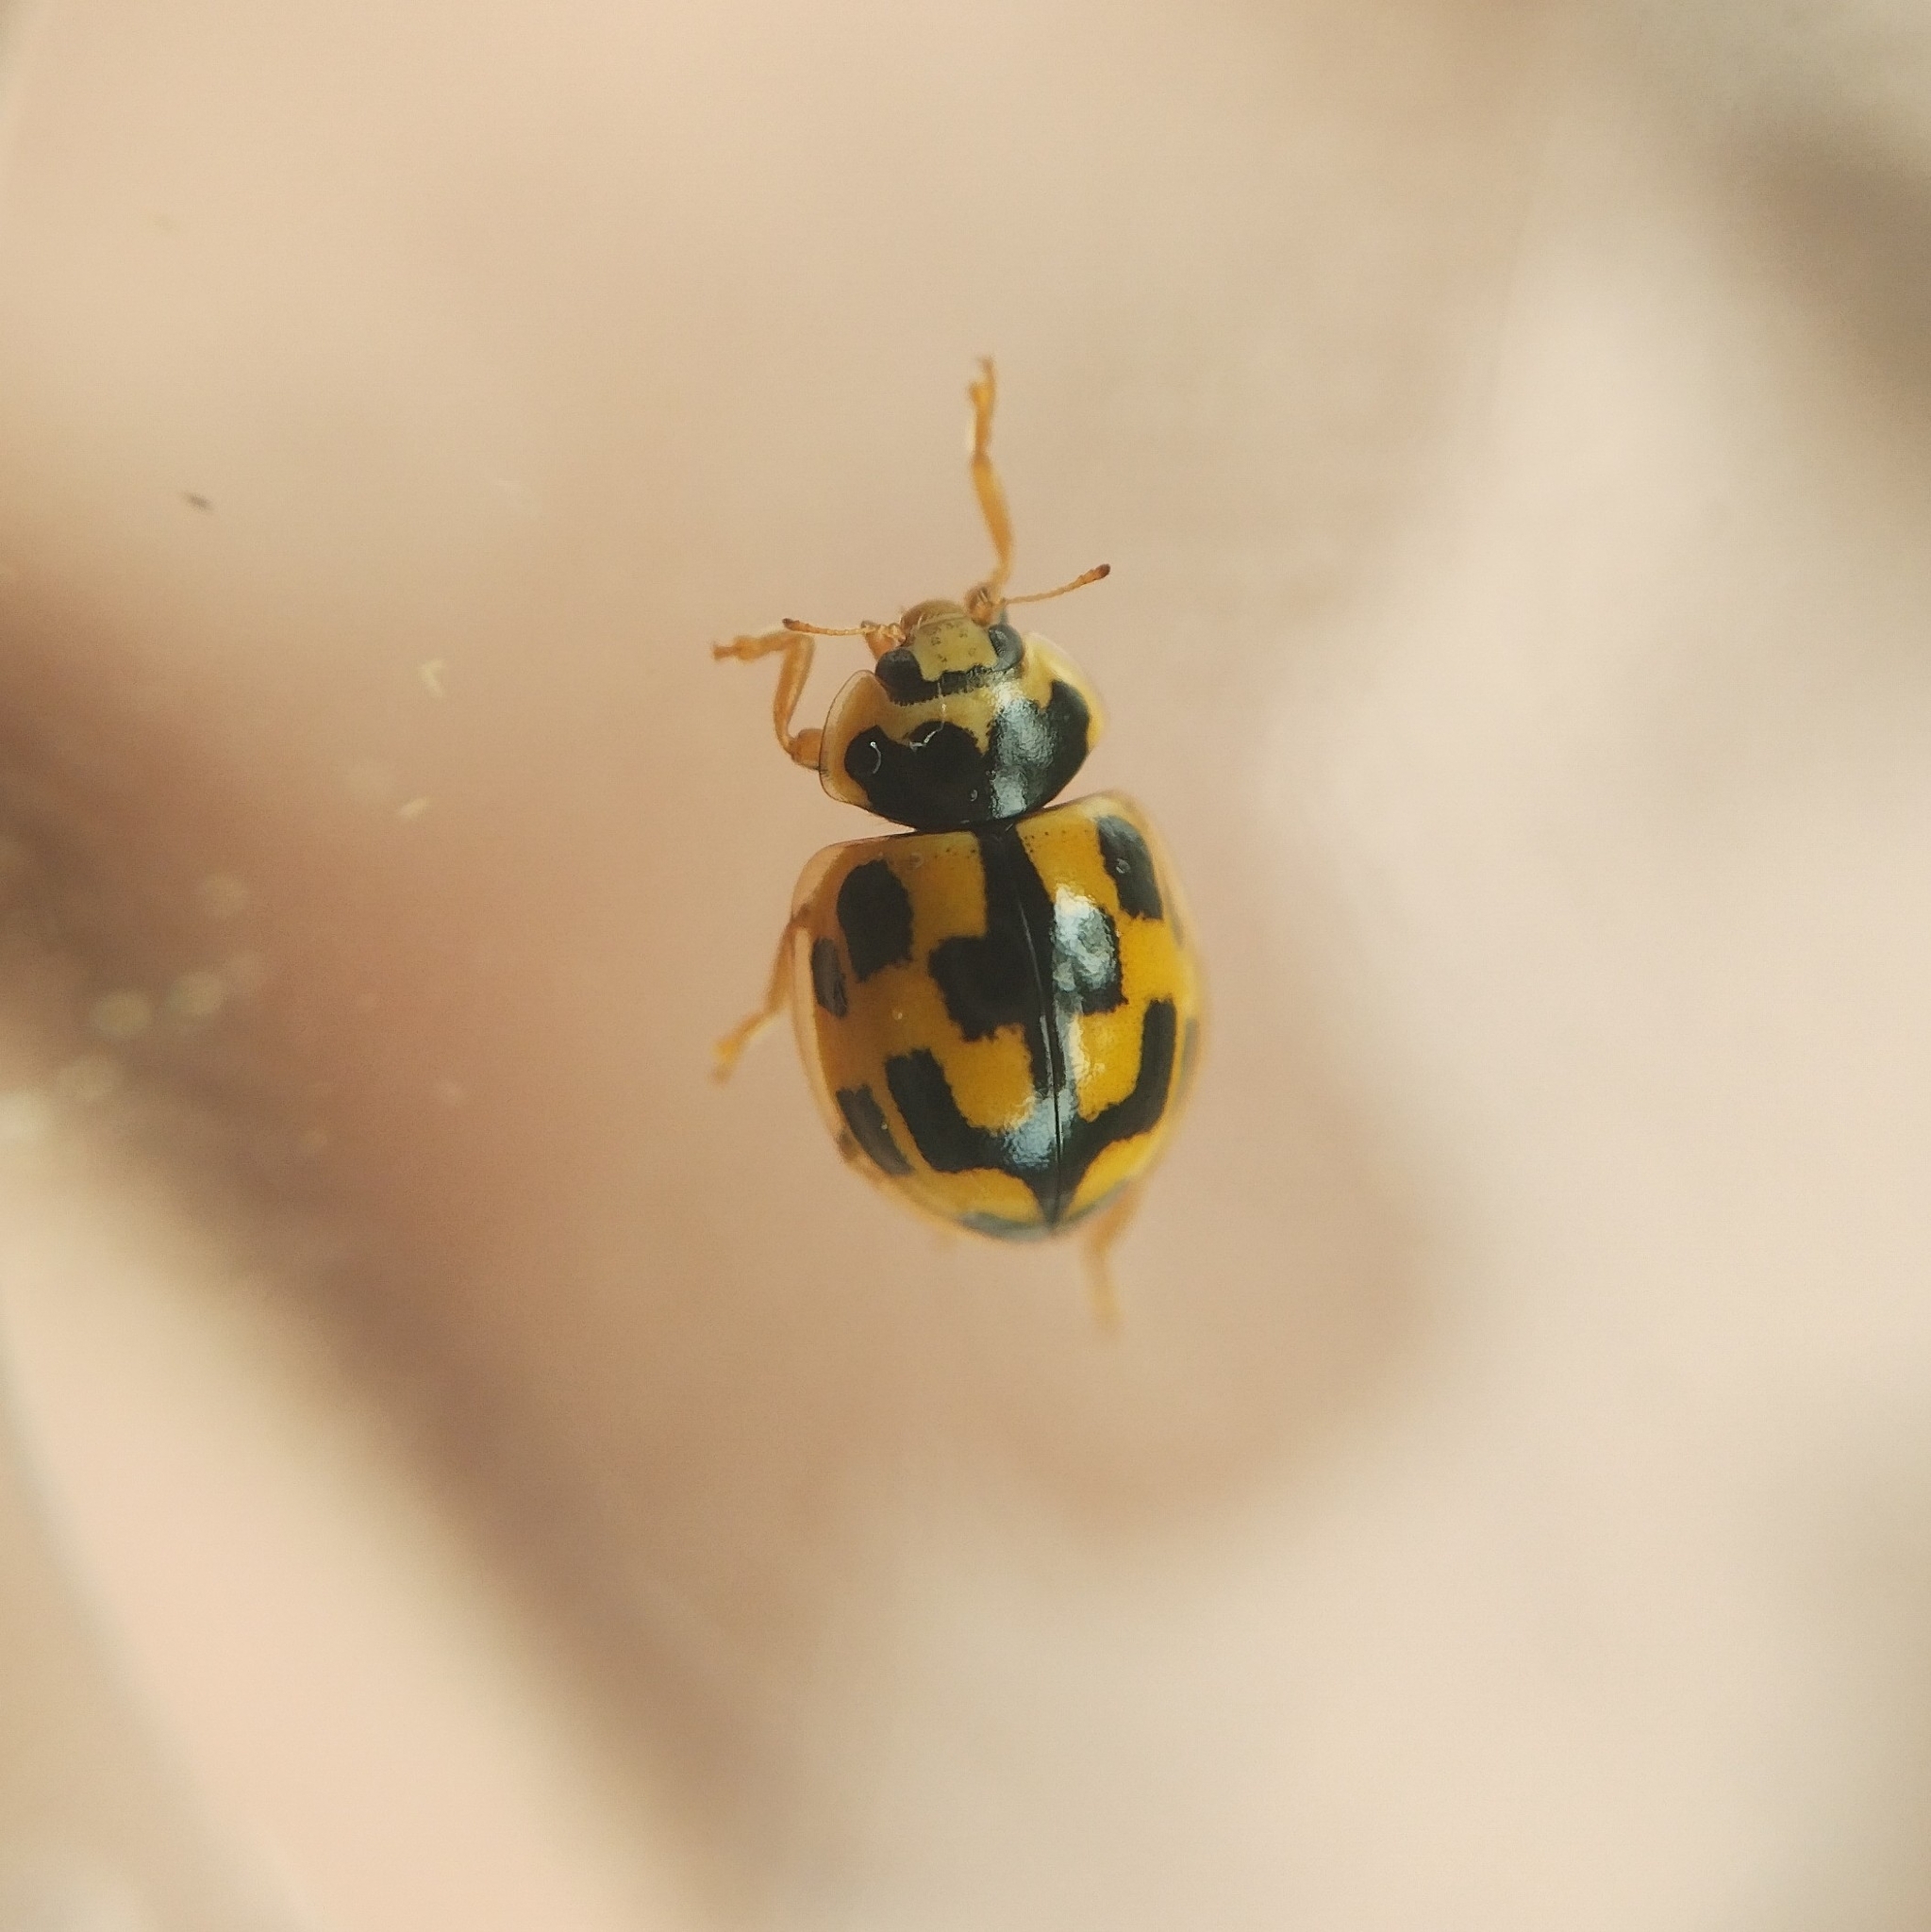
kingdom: Animalia
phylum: Arthropoda
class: Insecta
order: Coleoptera
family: Coccinellidae
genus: Propylaea
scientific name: Propylaea quatuordecimpunctata
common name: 14-spotted ladybird beetle
